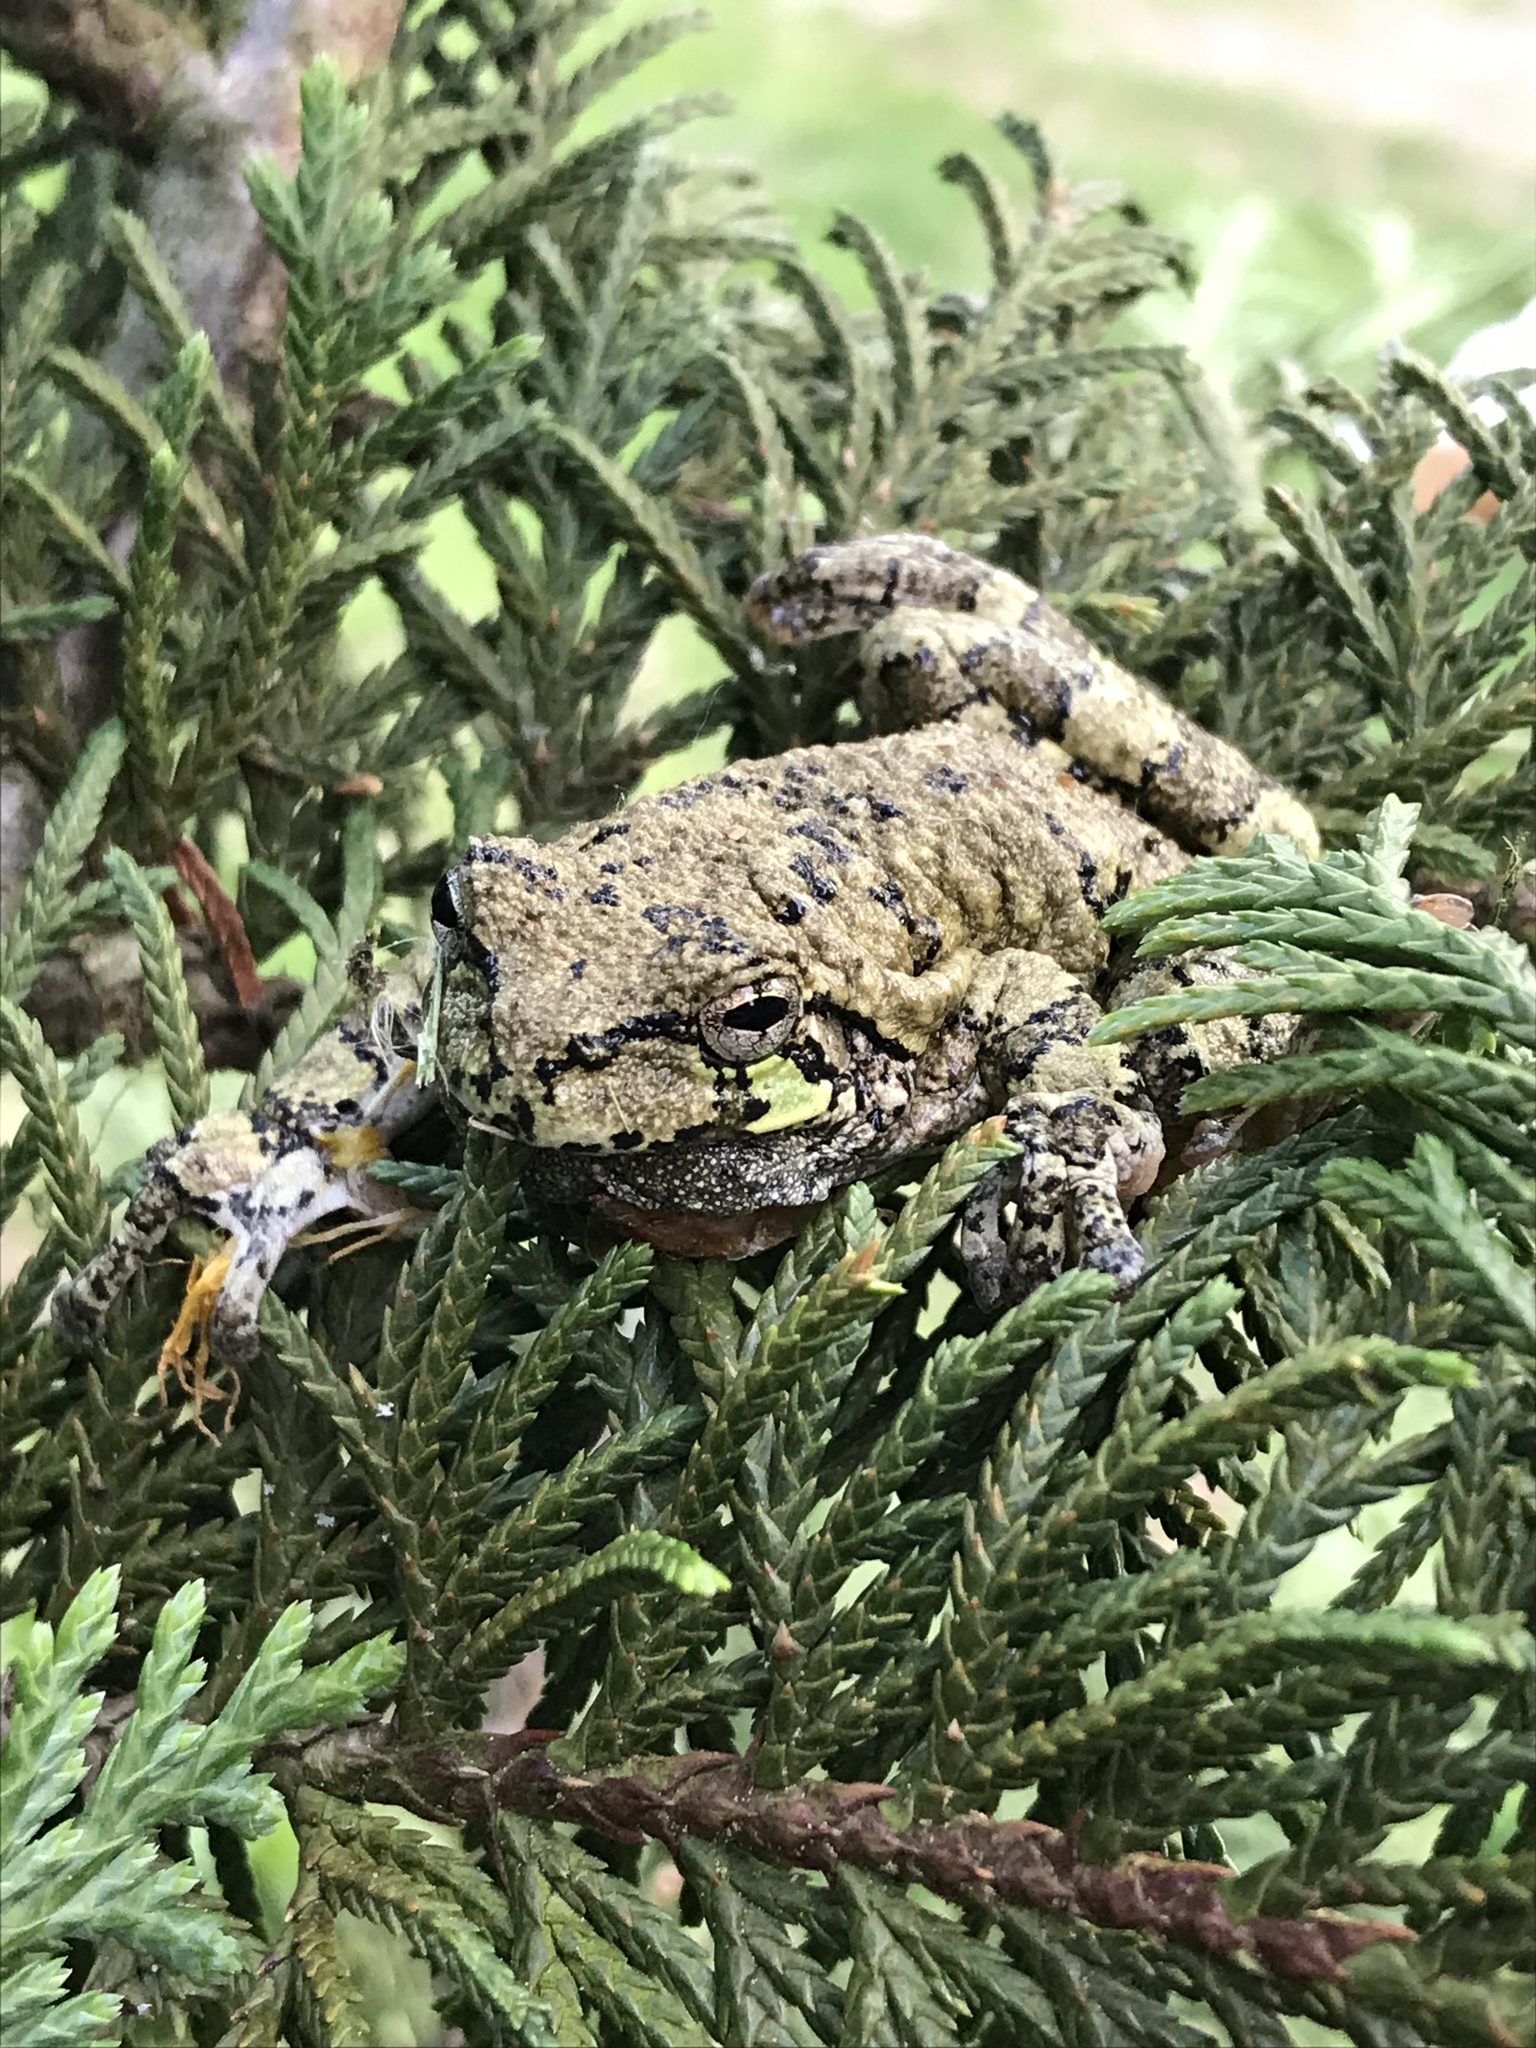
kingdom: Animalia
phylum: Chordata
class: Amphibia
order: Anura
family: Hylidae
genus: Dryophytes
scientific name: Dryophytes versicolor
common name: Gray treefrog
